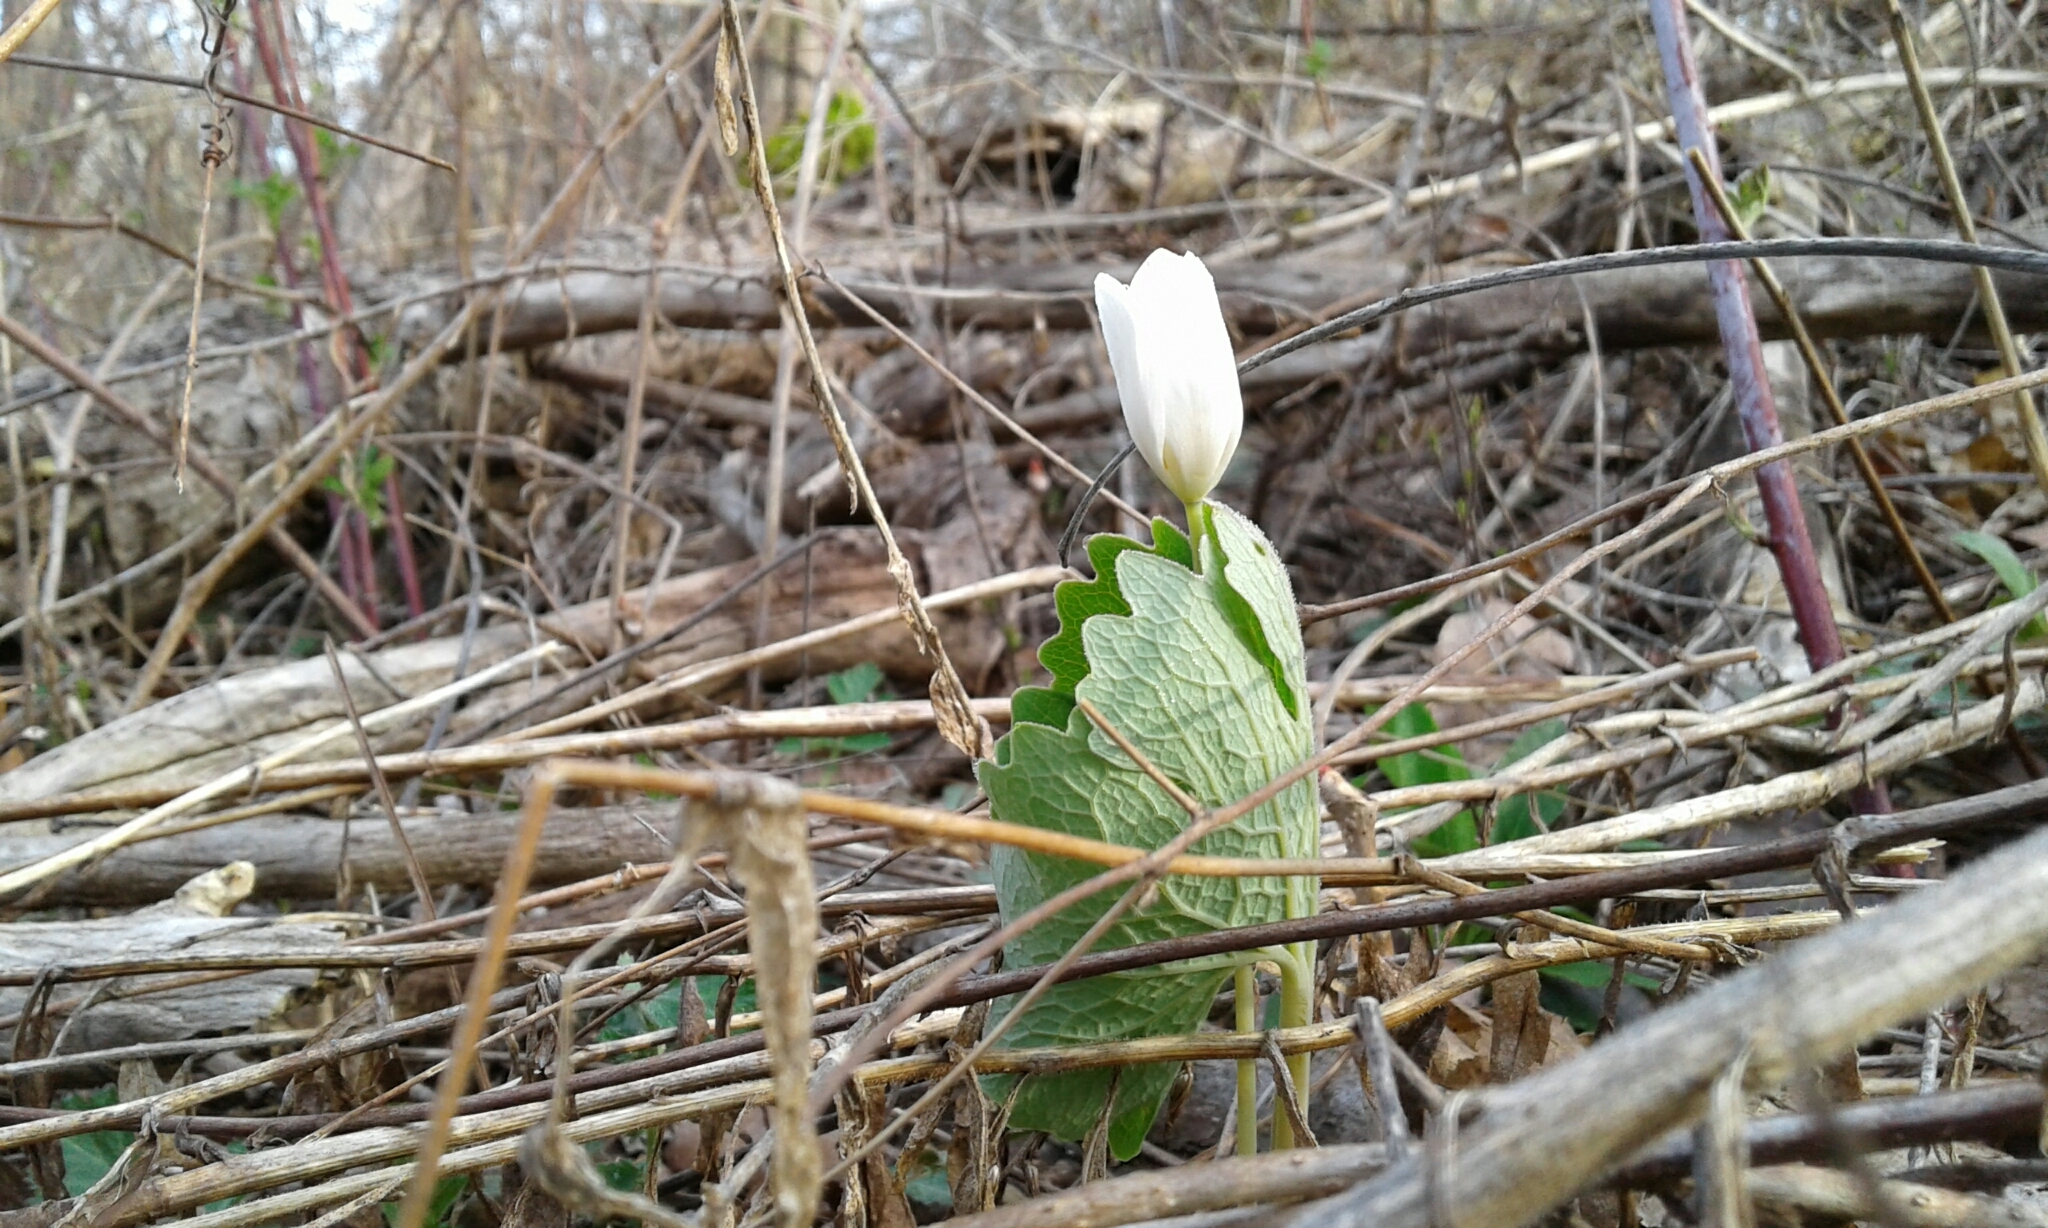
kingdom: Plantae
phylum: Tracheophyta
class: Magnoliopsida
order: Ranunculales
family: Papaveraceae
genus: Sanguinaria
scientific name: Sanguinaria canadensis
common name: Bloodroot
